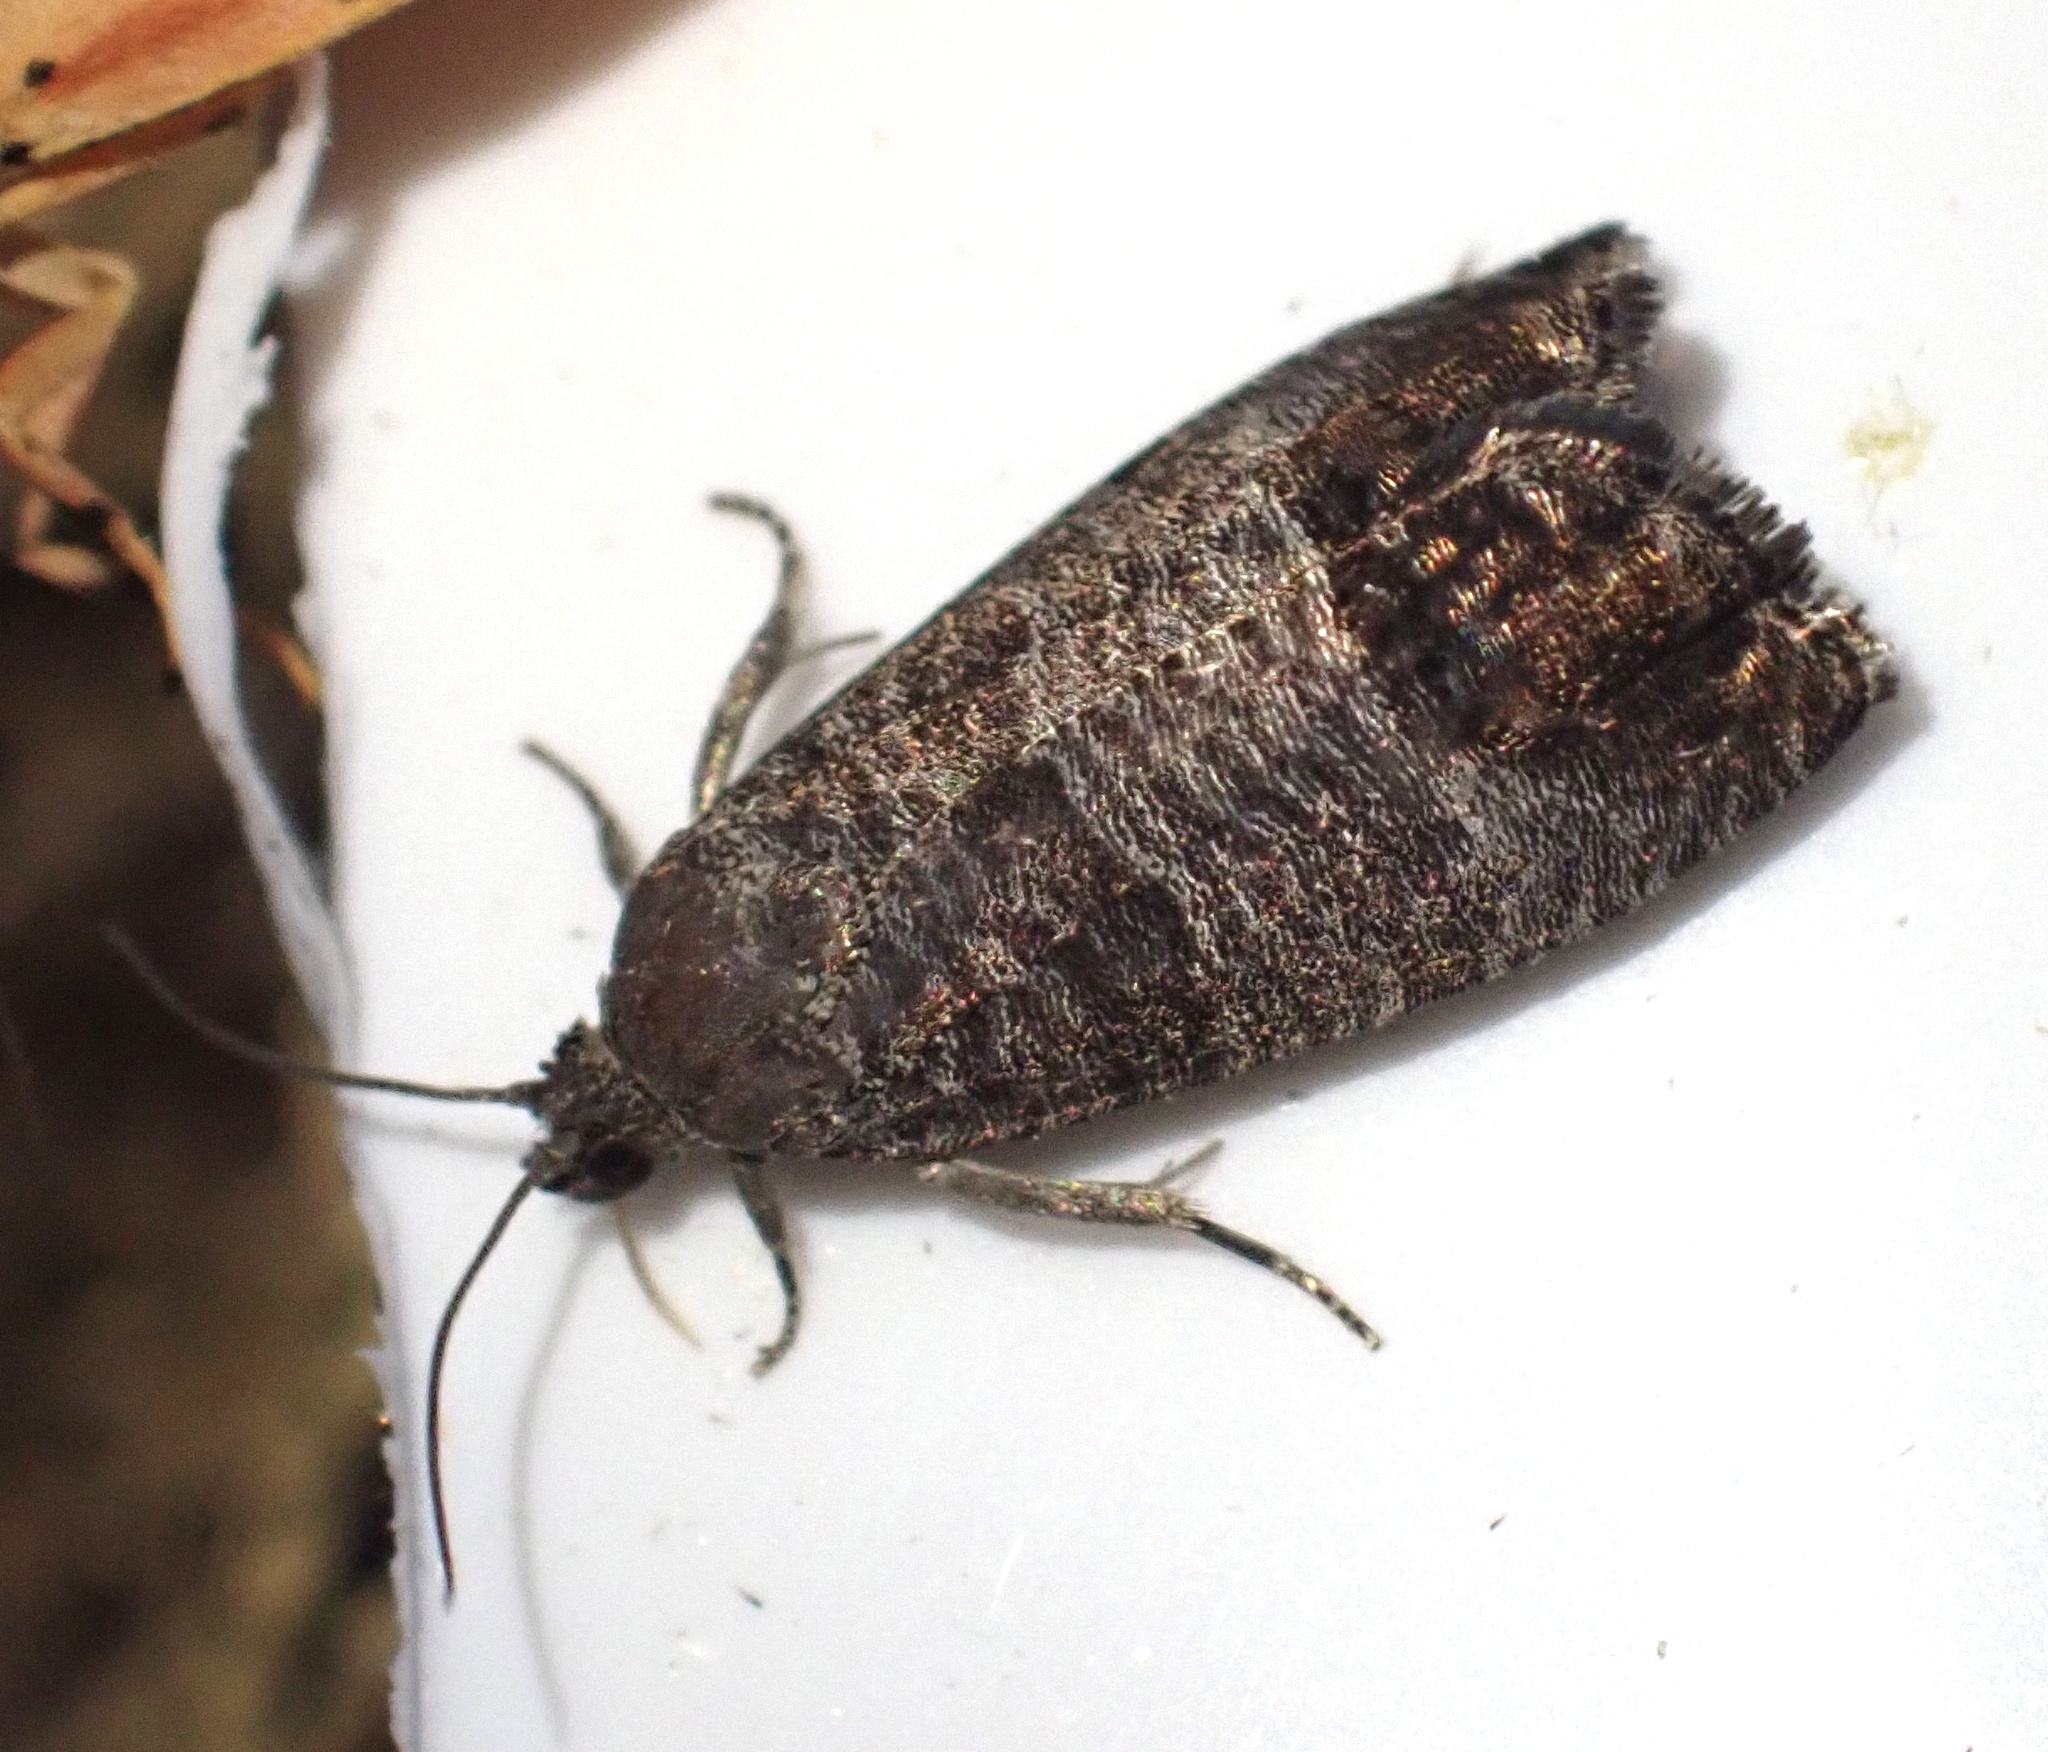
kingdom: Animalia
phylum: Arthropoda
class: Insecta
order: Lepidoptera
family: Tortricidae
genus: Cydia
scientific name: Cydia pomonella
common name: Codling moth
